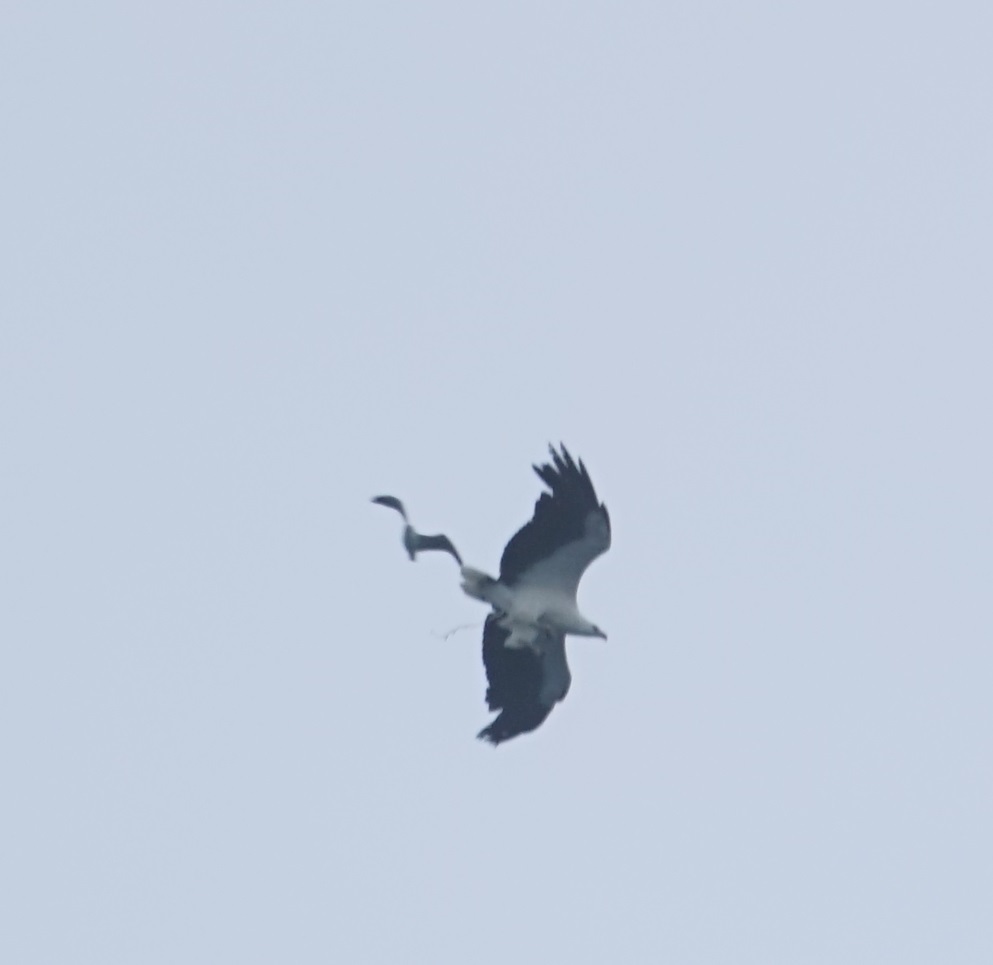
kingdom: Animalia
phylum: Chordata
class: Aves
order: Passeriformes
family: Corvidae
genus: Corvus
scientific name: Corvus coronoides
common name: Australian raven
